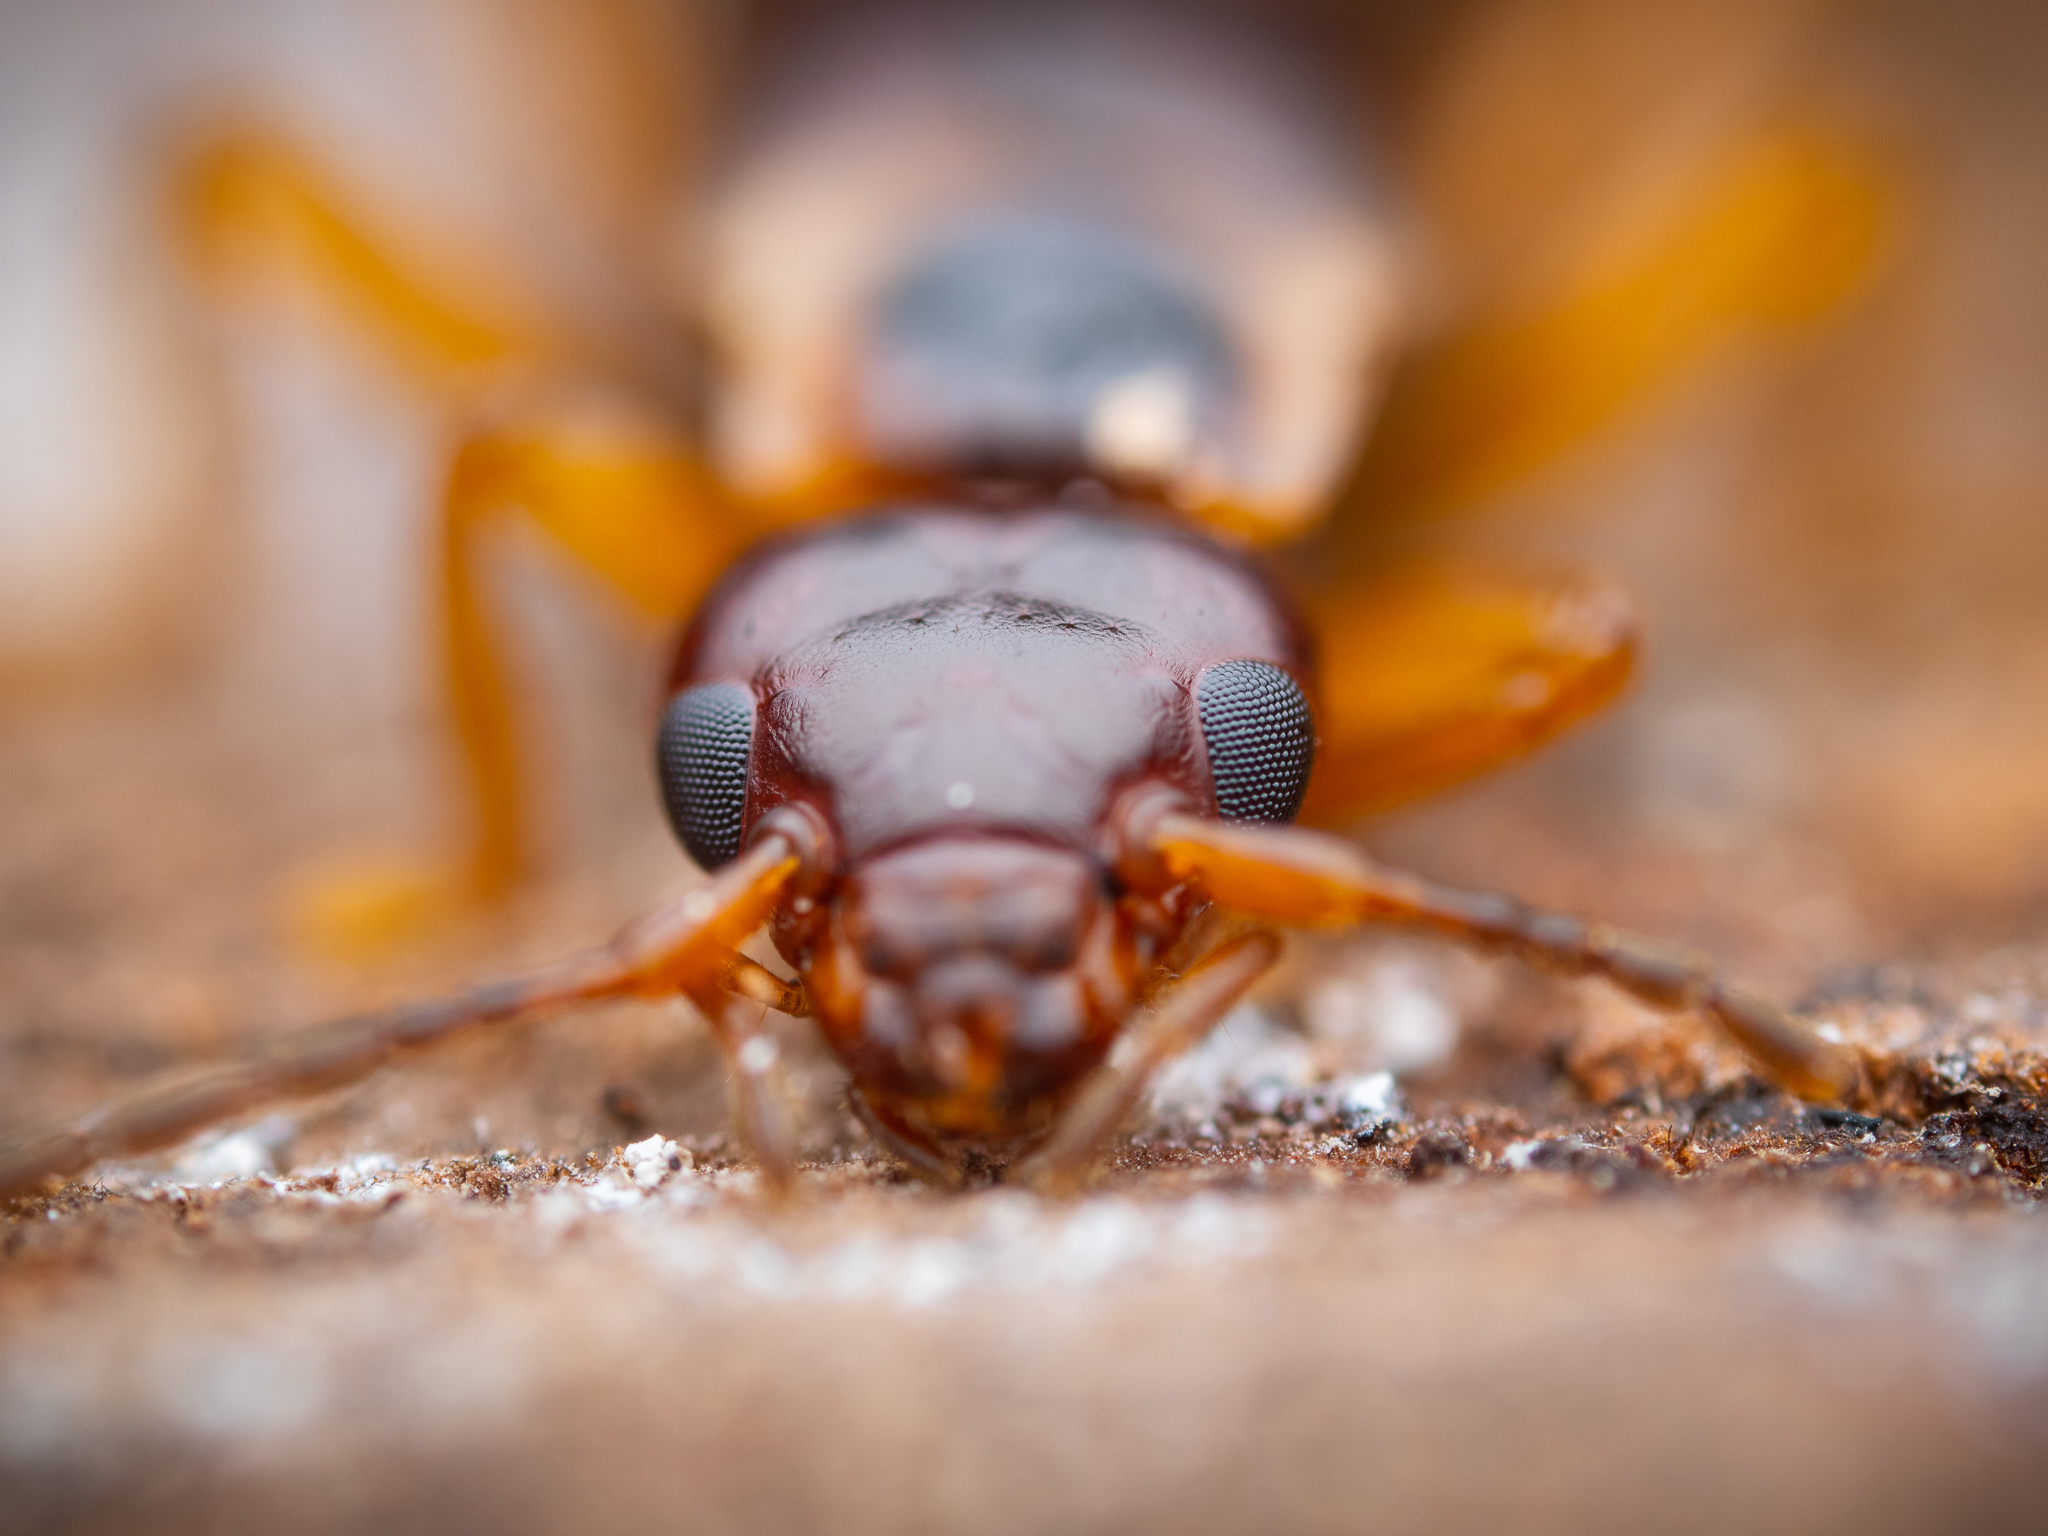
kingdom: Animalia
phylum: Arthropoda
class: Insecta
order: Dermaptera
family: Forficulidae
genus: Forficula
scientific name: Forficula
